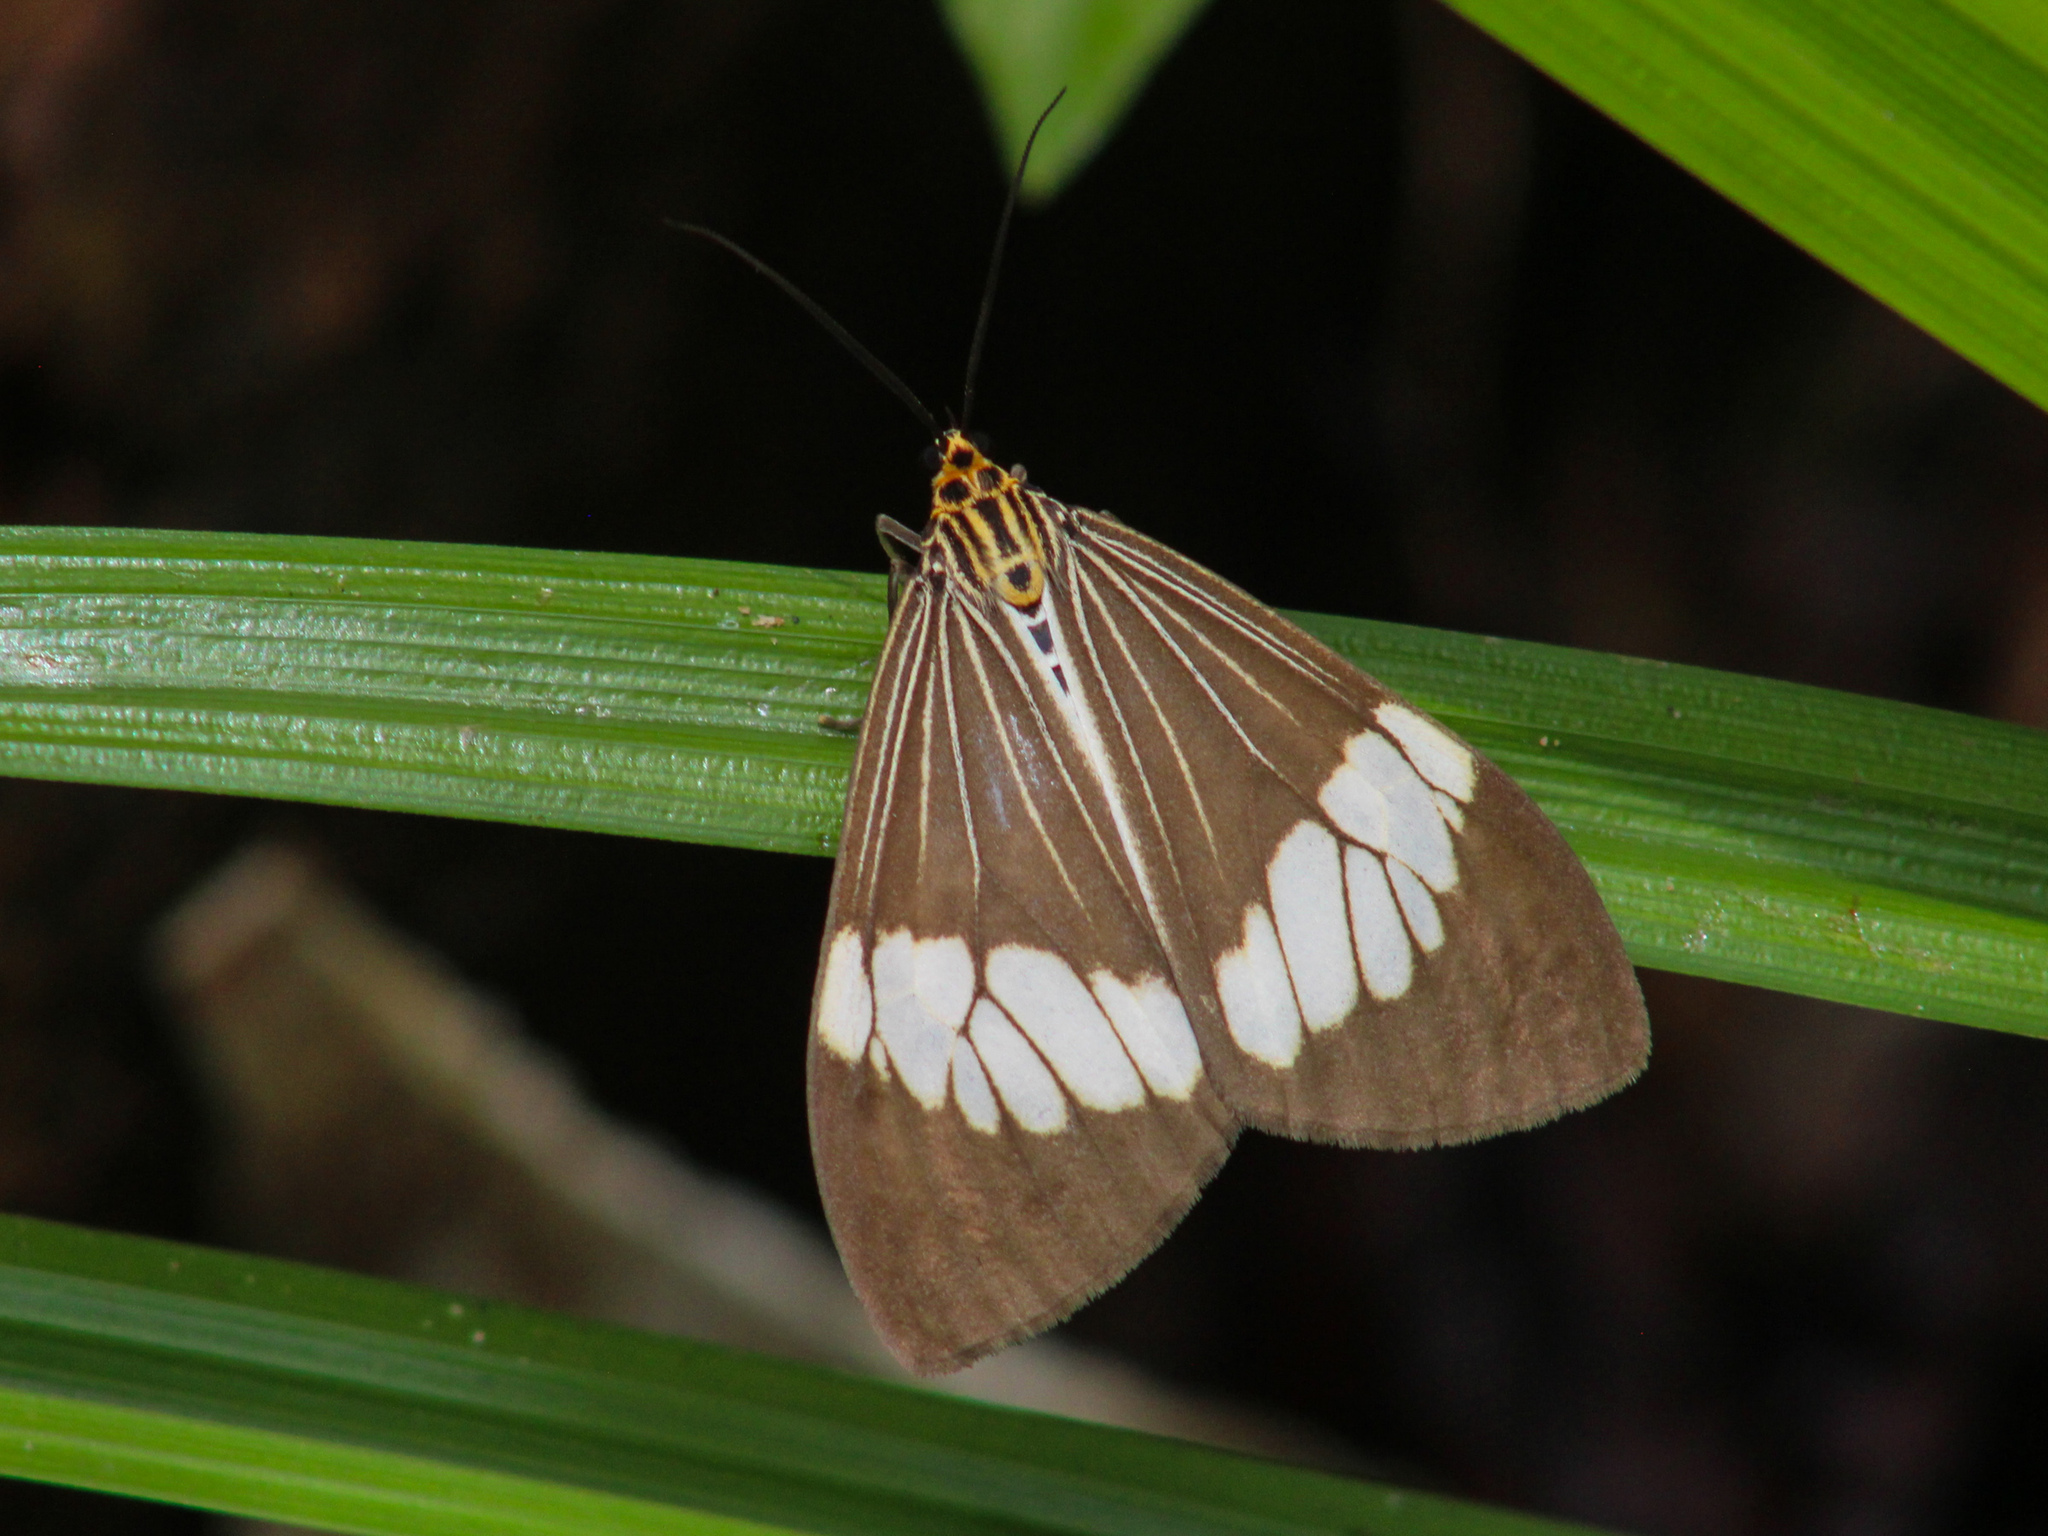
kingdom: Animalia
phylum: Arthropoda
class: Insecta
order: Lepidoptera
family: Erebidae
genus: Nyctemera
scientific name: Nyctemera baulus
